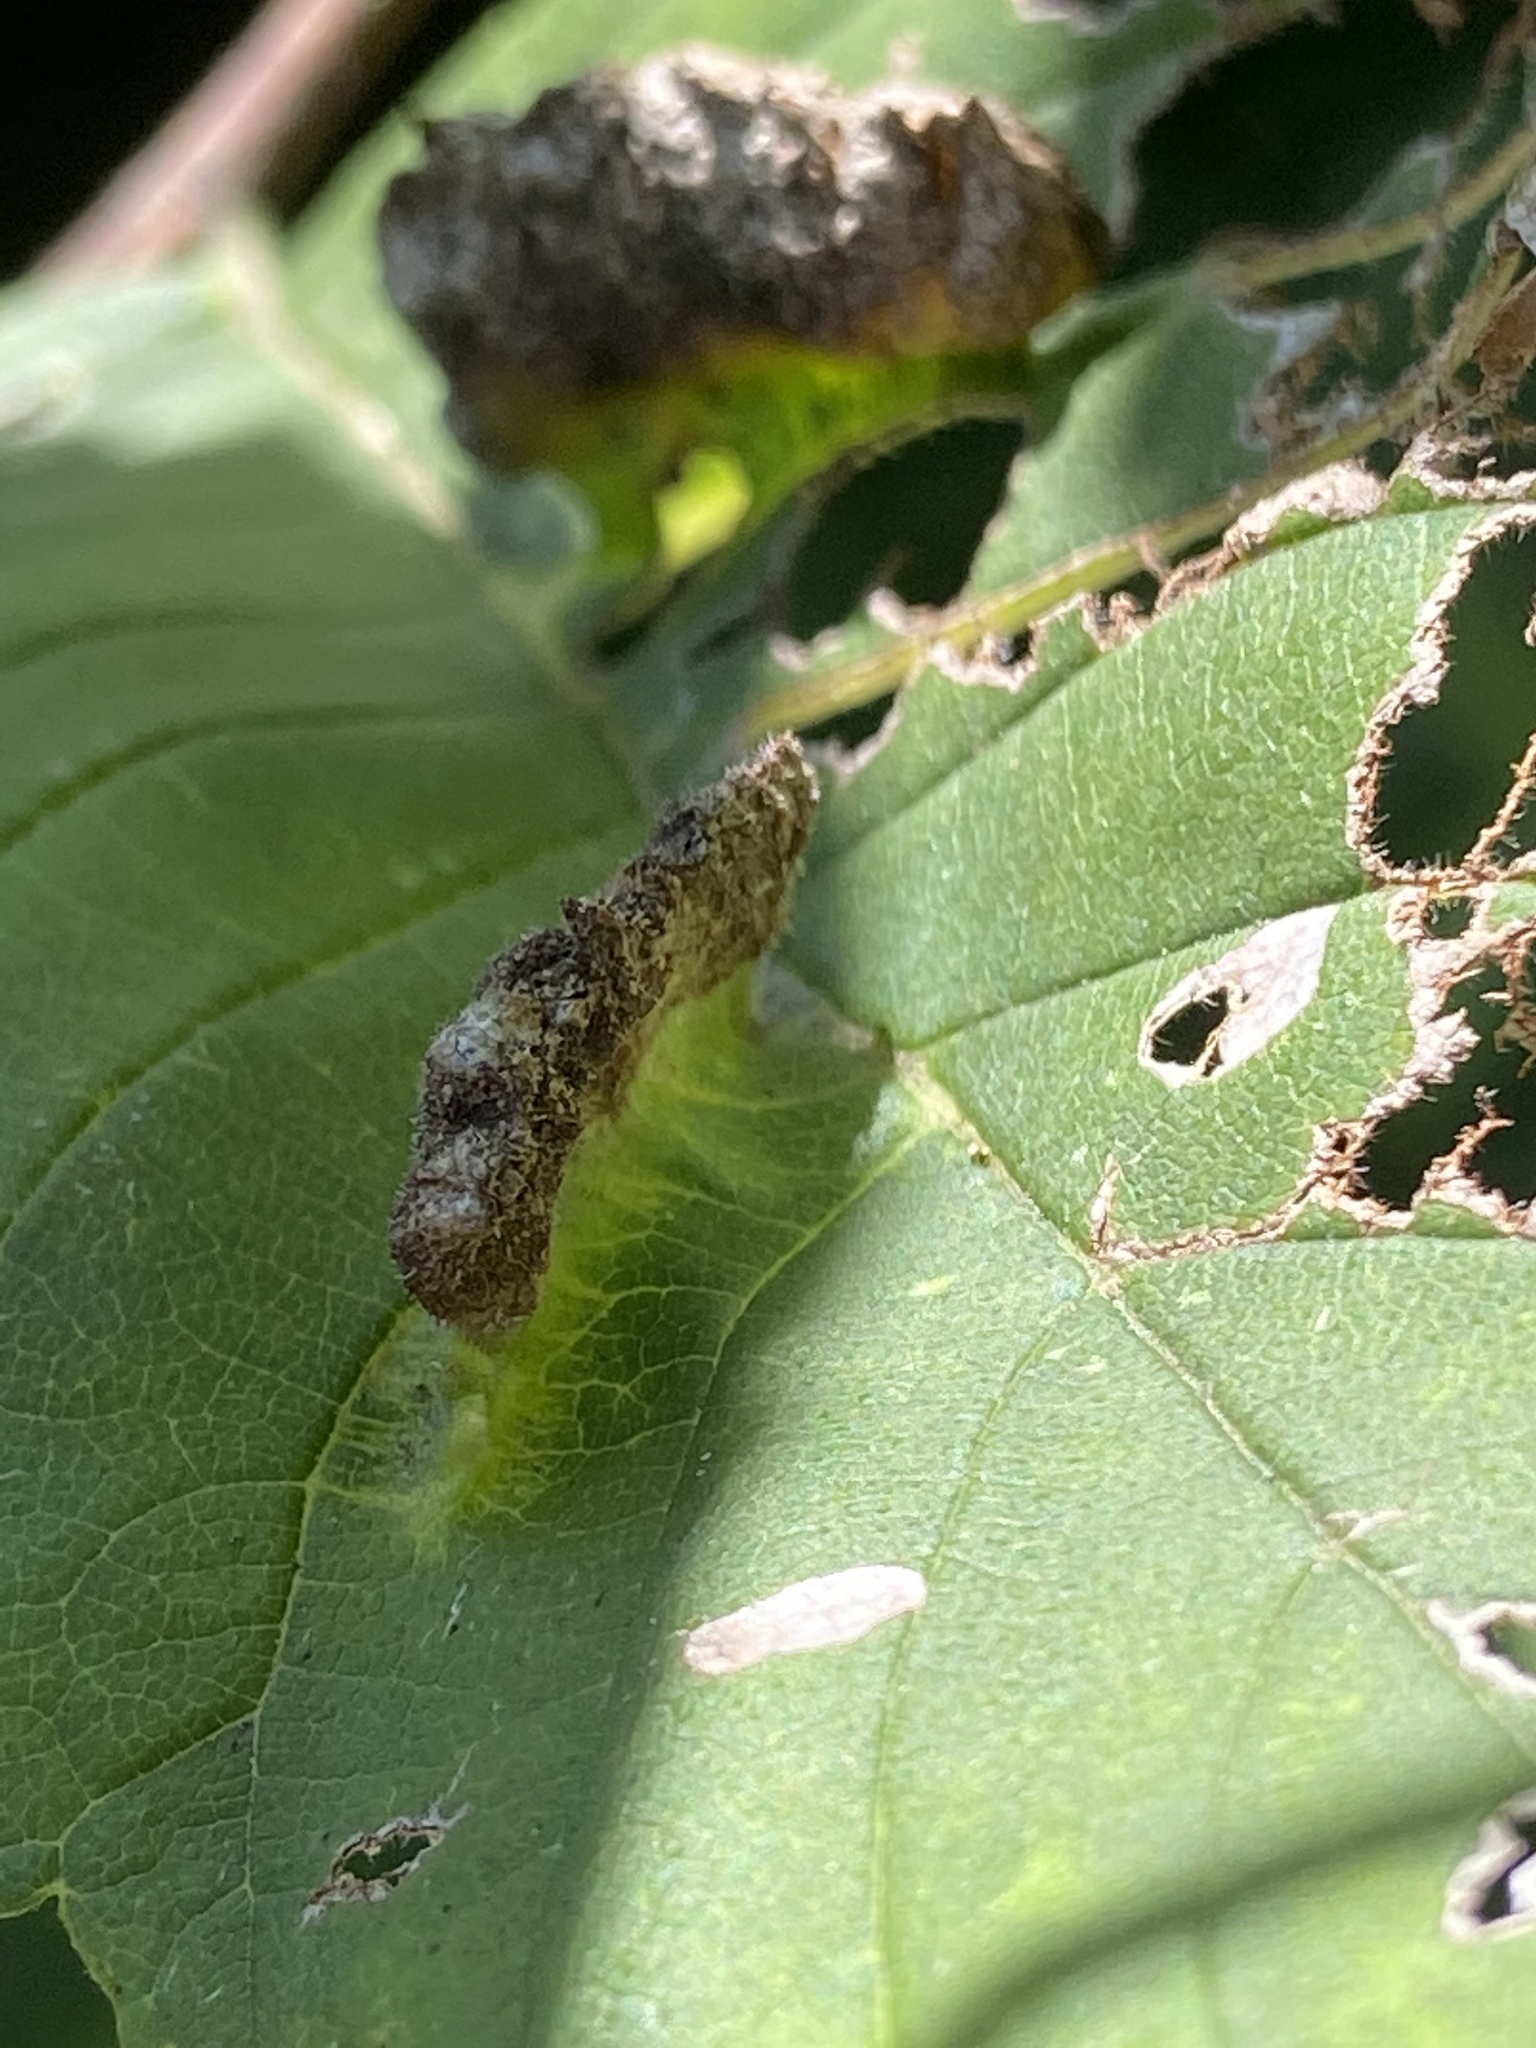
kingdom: Animalia
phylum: Arthropoda
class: Insecta
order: Hemiptera
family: Aphididae
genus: Colopha
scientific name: Colopha ulmicola
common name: Elm cockscombgall aphid
